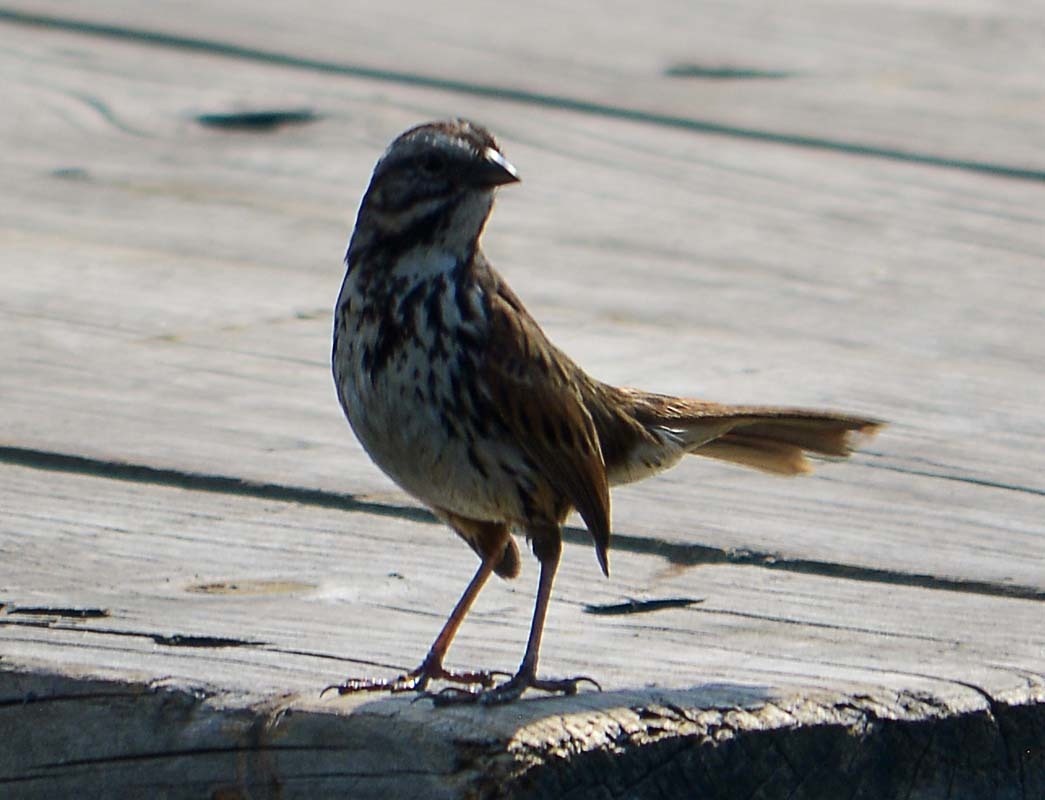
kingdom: Animalia
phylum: Chordata
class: Aves
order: Passeriformes
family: Passerellidae
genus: Melospiza
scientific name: Melospiza melodia
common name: Song sparrow
